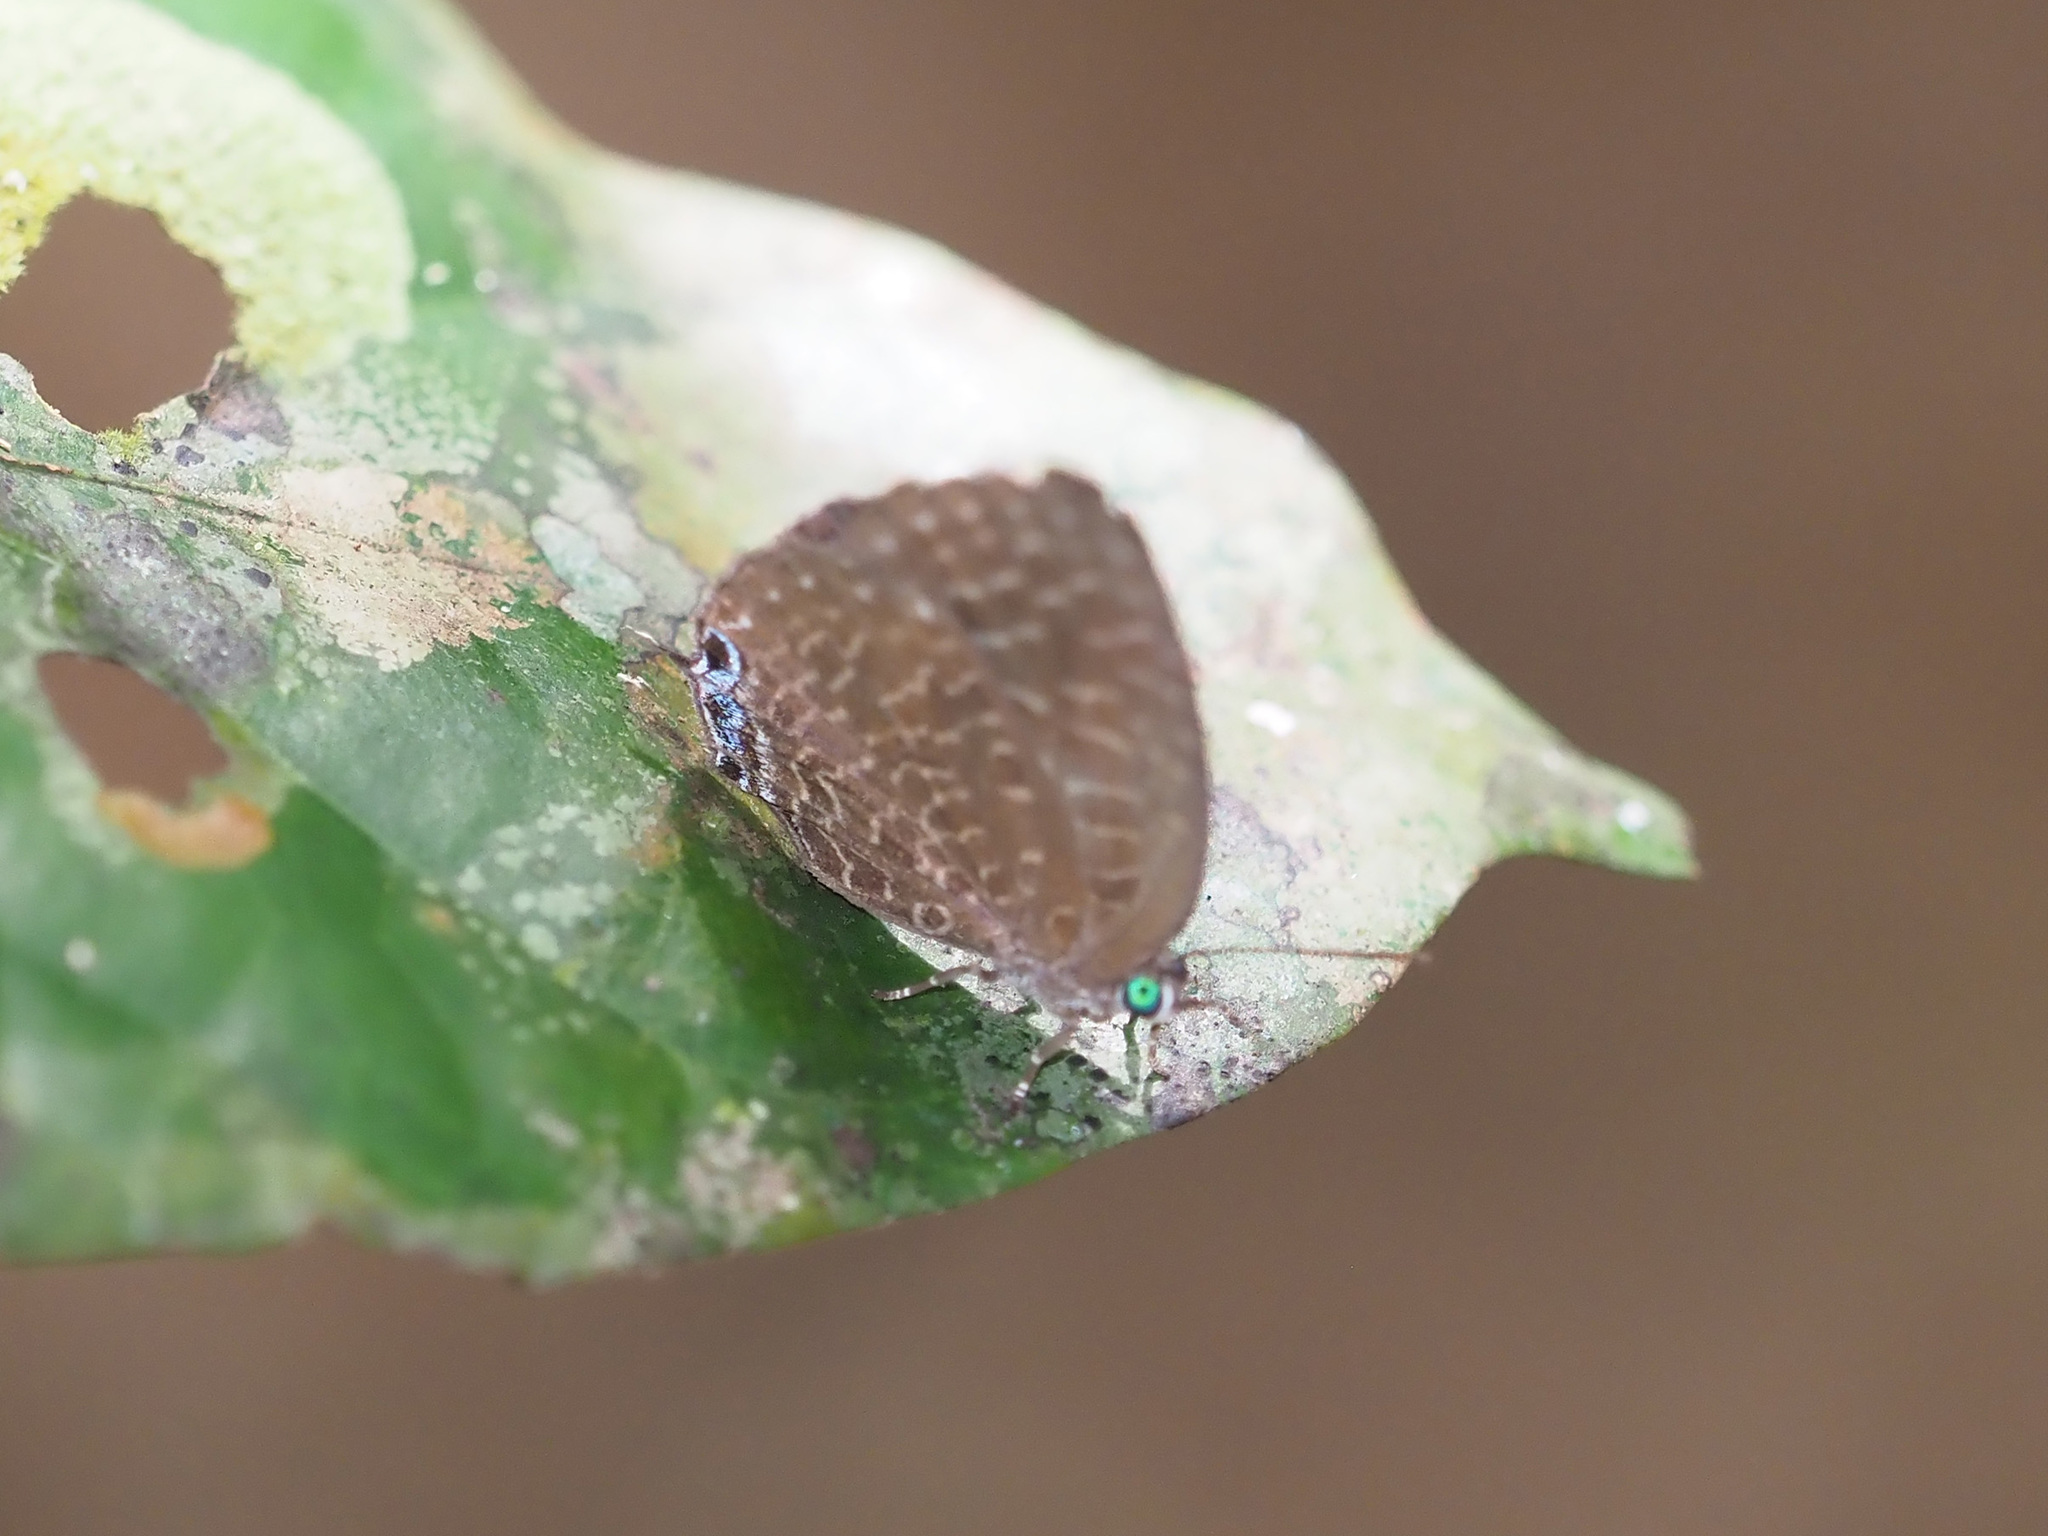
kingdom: Animalia
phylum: Arthropoda
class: Insecta
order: Lepidoptera
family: Lycaenidae
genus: Arhopala
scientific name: Arhopala democritus
